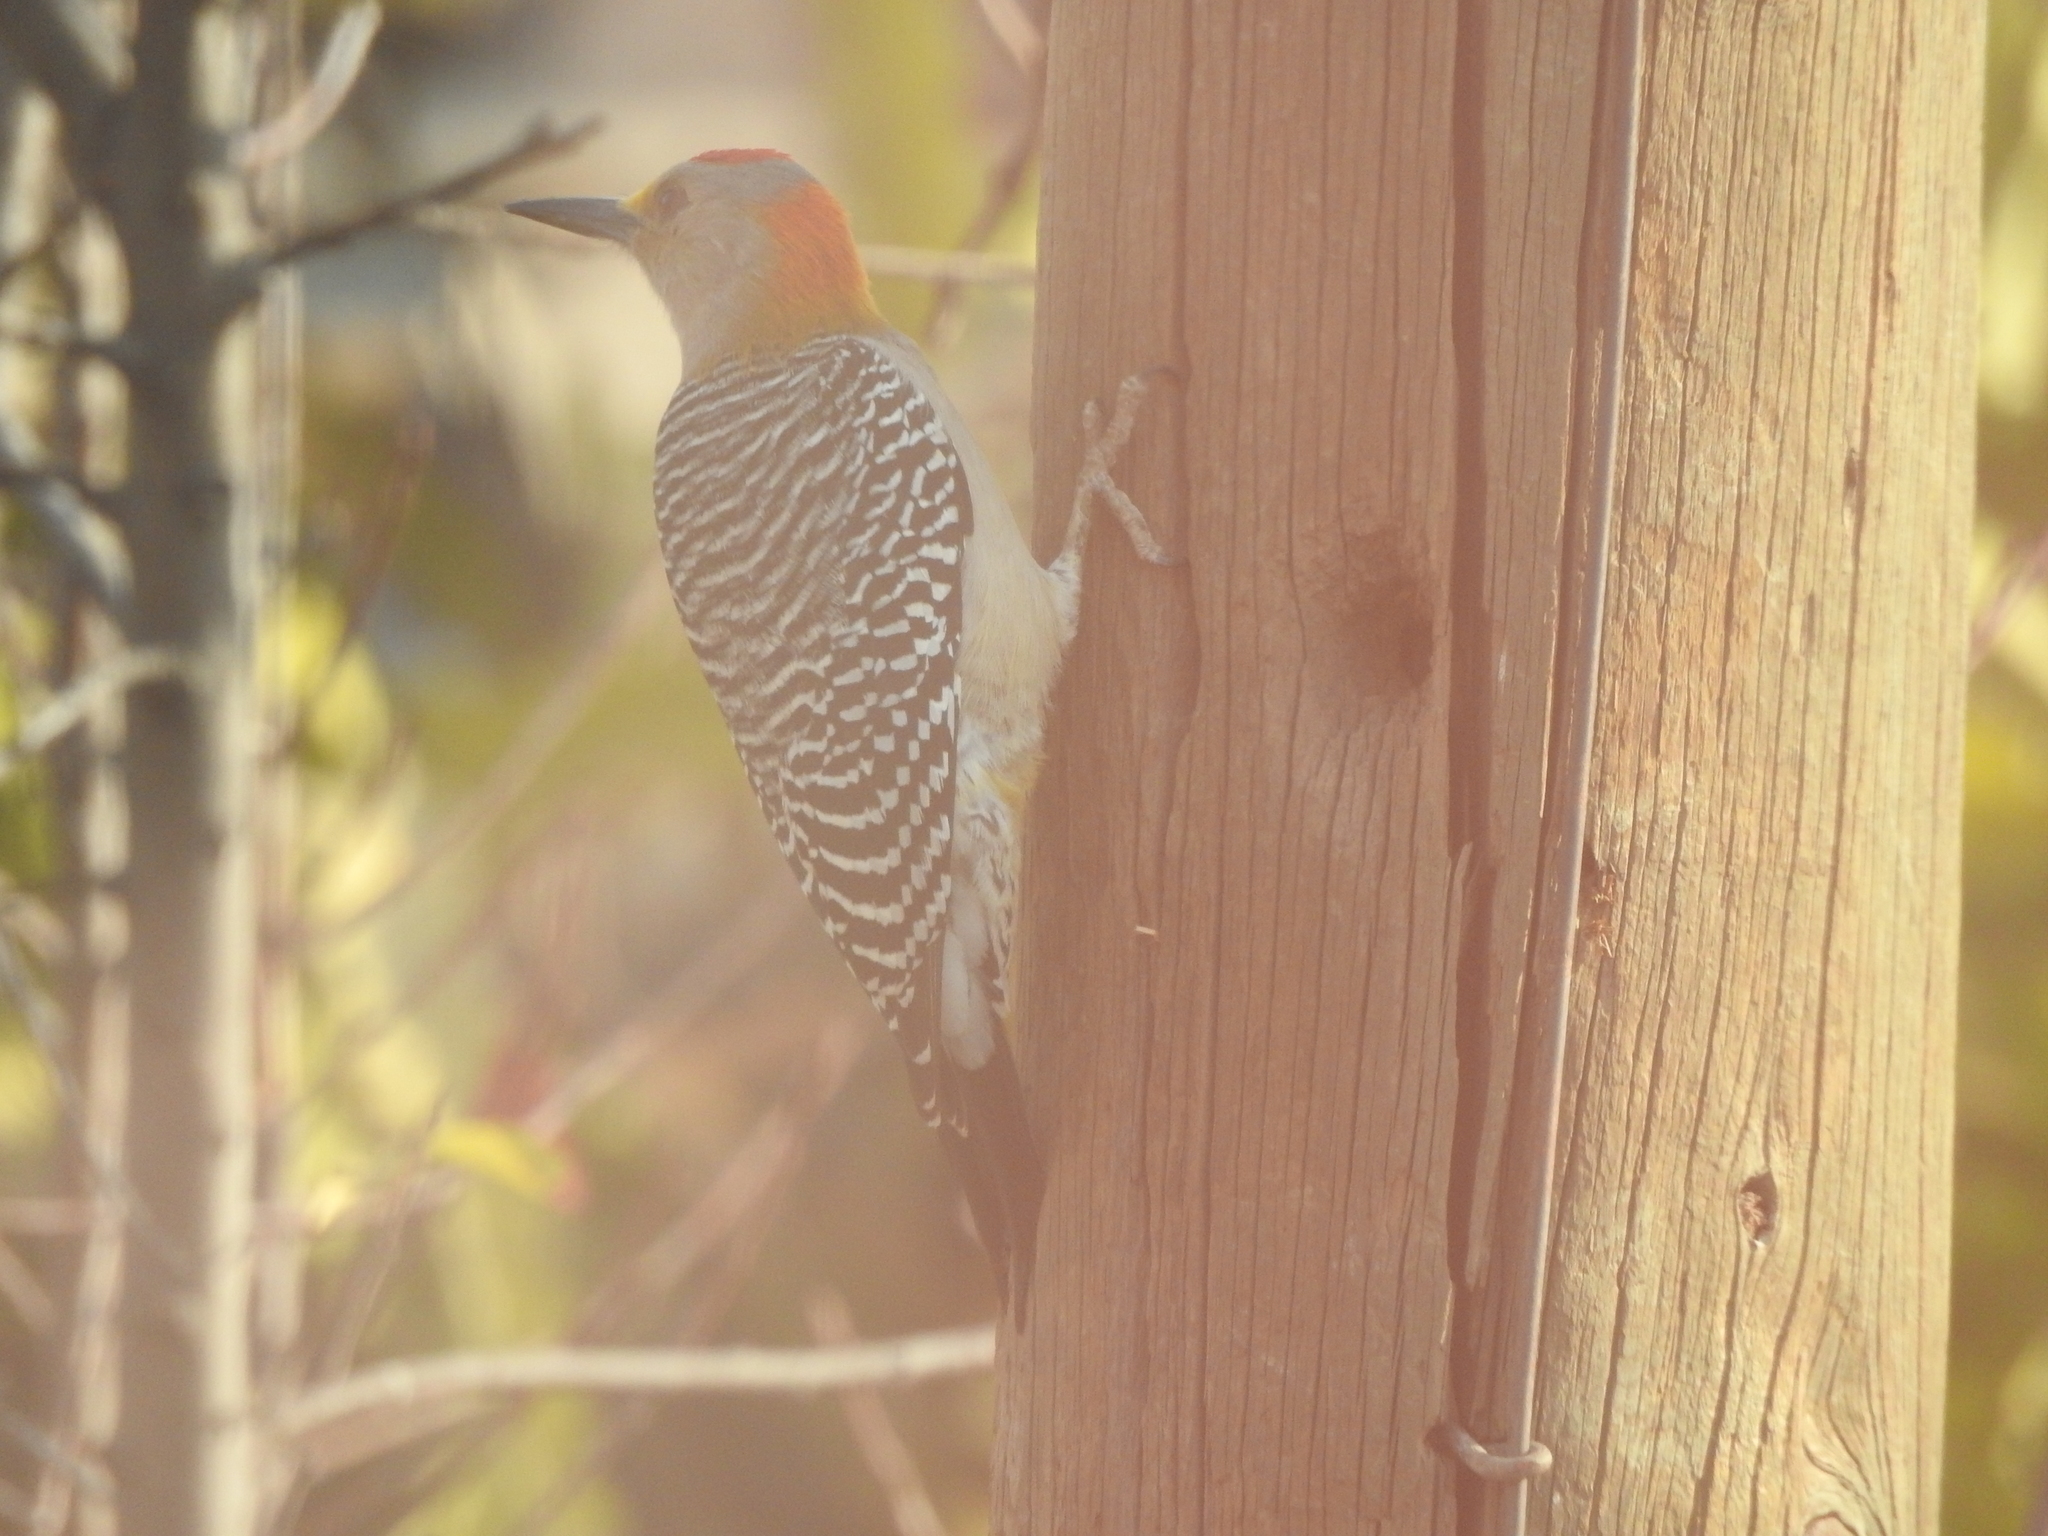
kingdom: Animalia
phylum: Chordata
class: Aves
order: Piciformes
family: Picidae
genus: Melanerpes
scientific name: Melanerpes aurifrons
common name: Golden-fronted woodpecker
